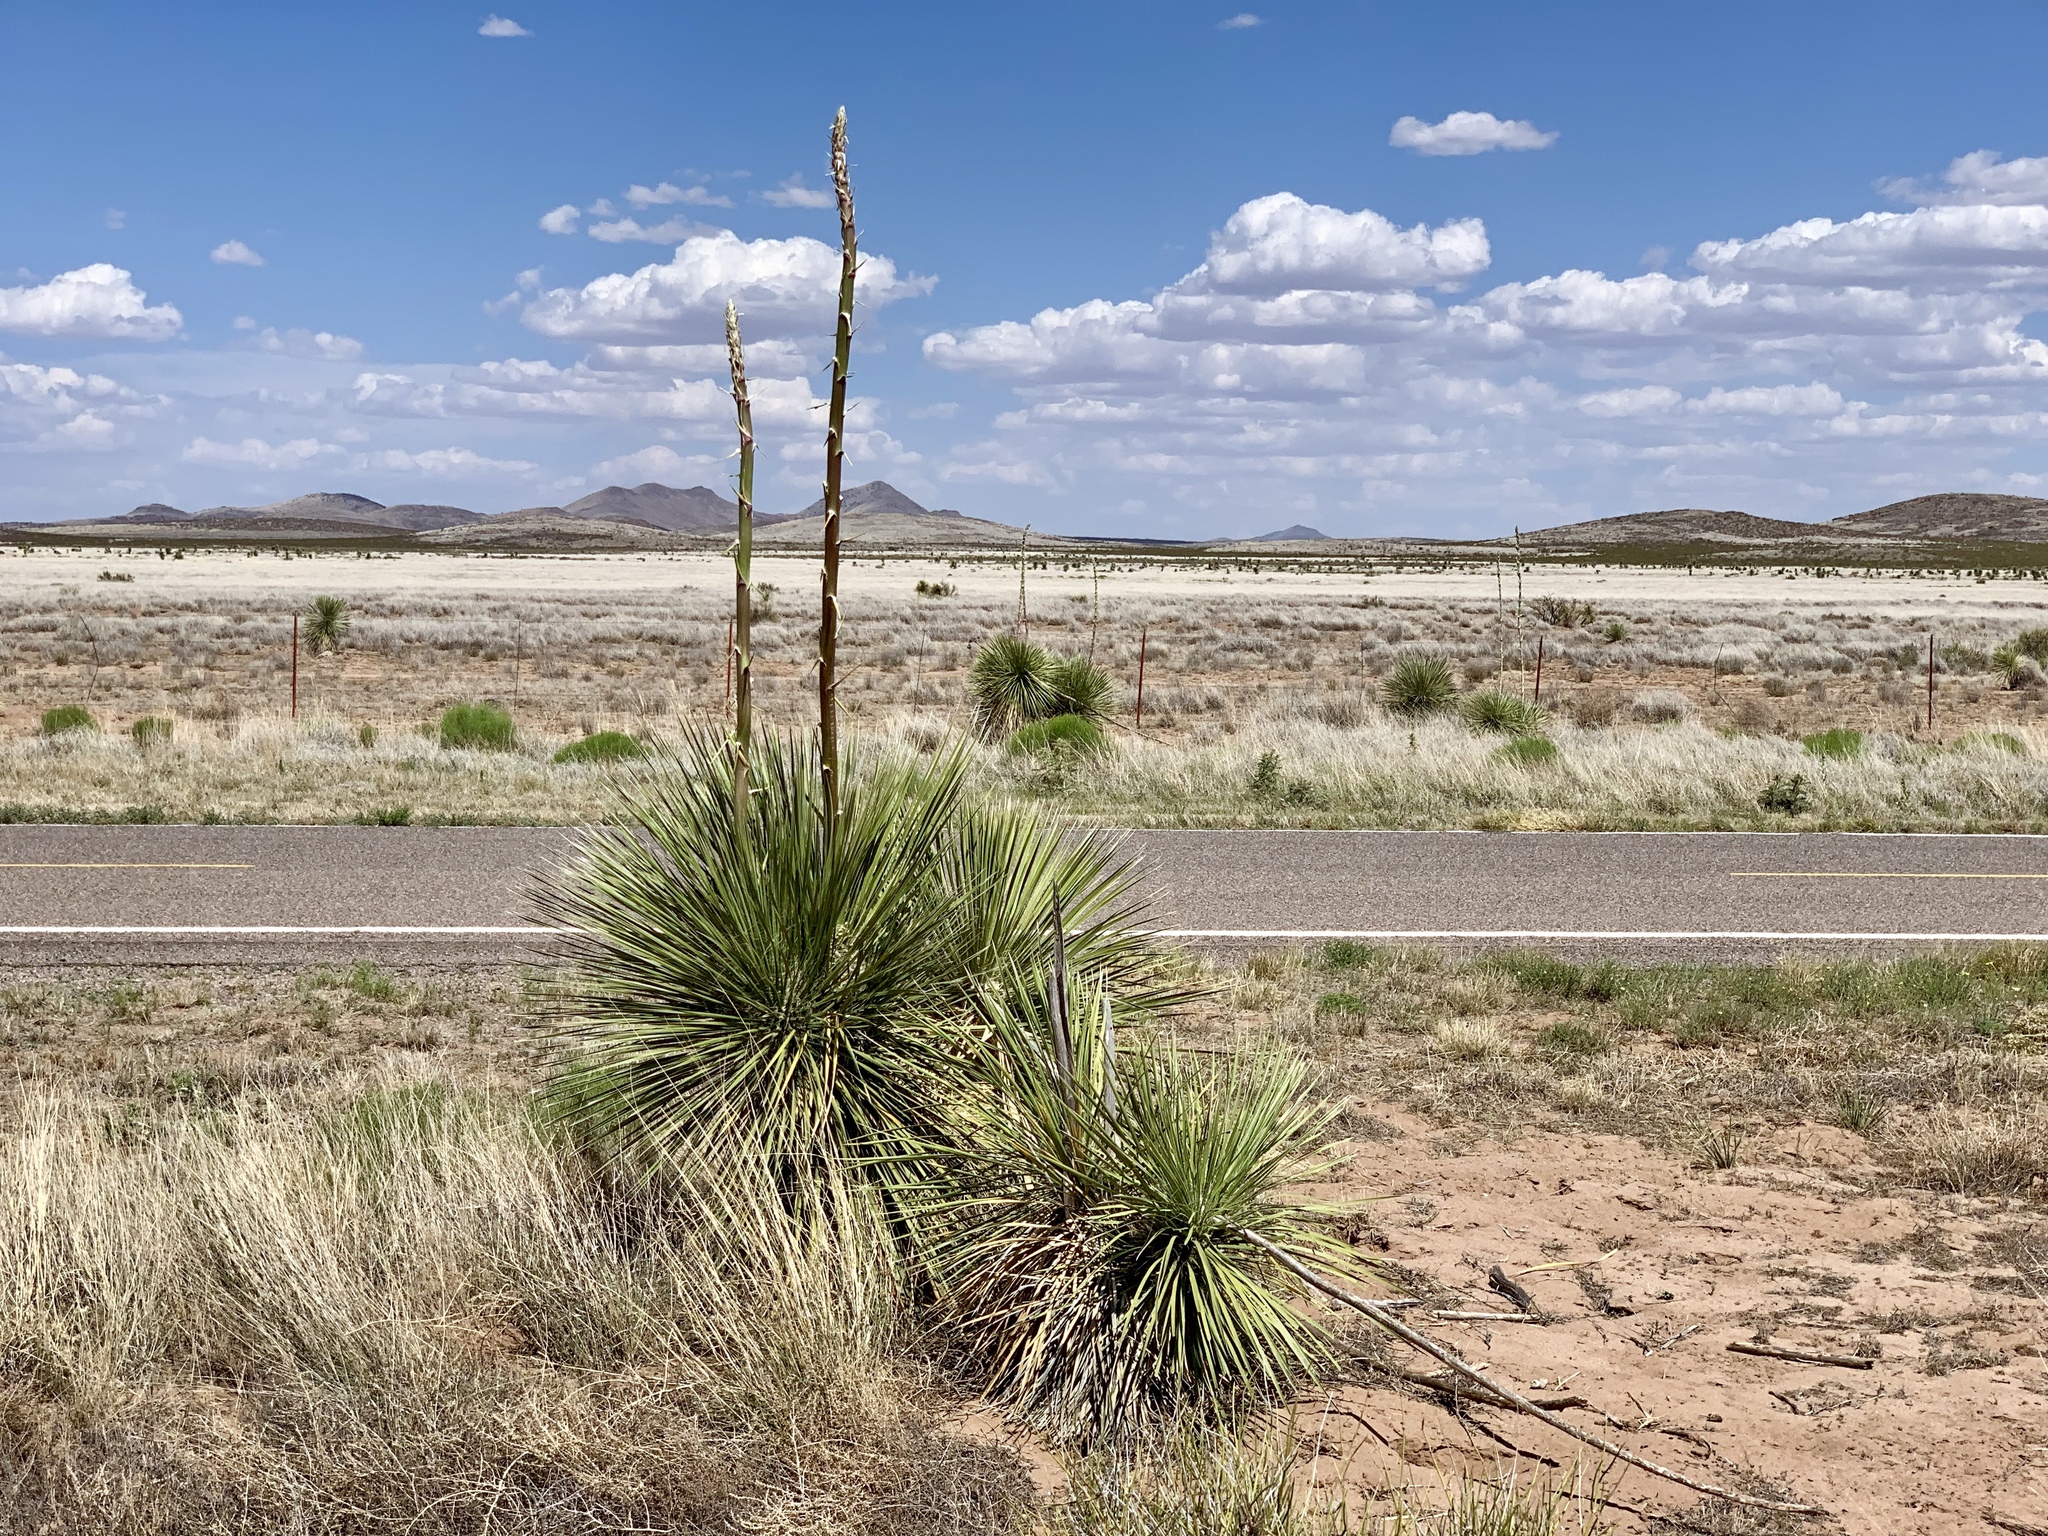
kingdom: Plantae
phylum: Tracheophyta
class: Liliopsida
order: Asparagales
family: Asparagaceae
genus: Yucca
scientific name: Yucca elata
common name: Palmella
